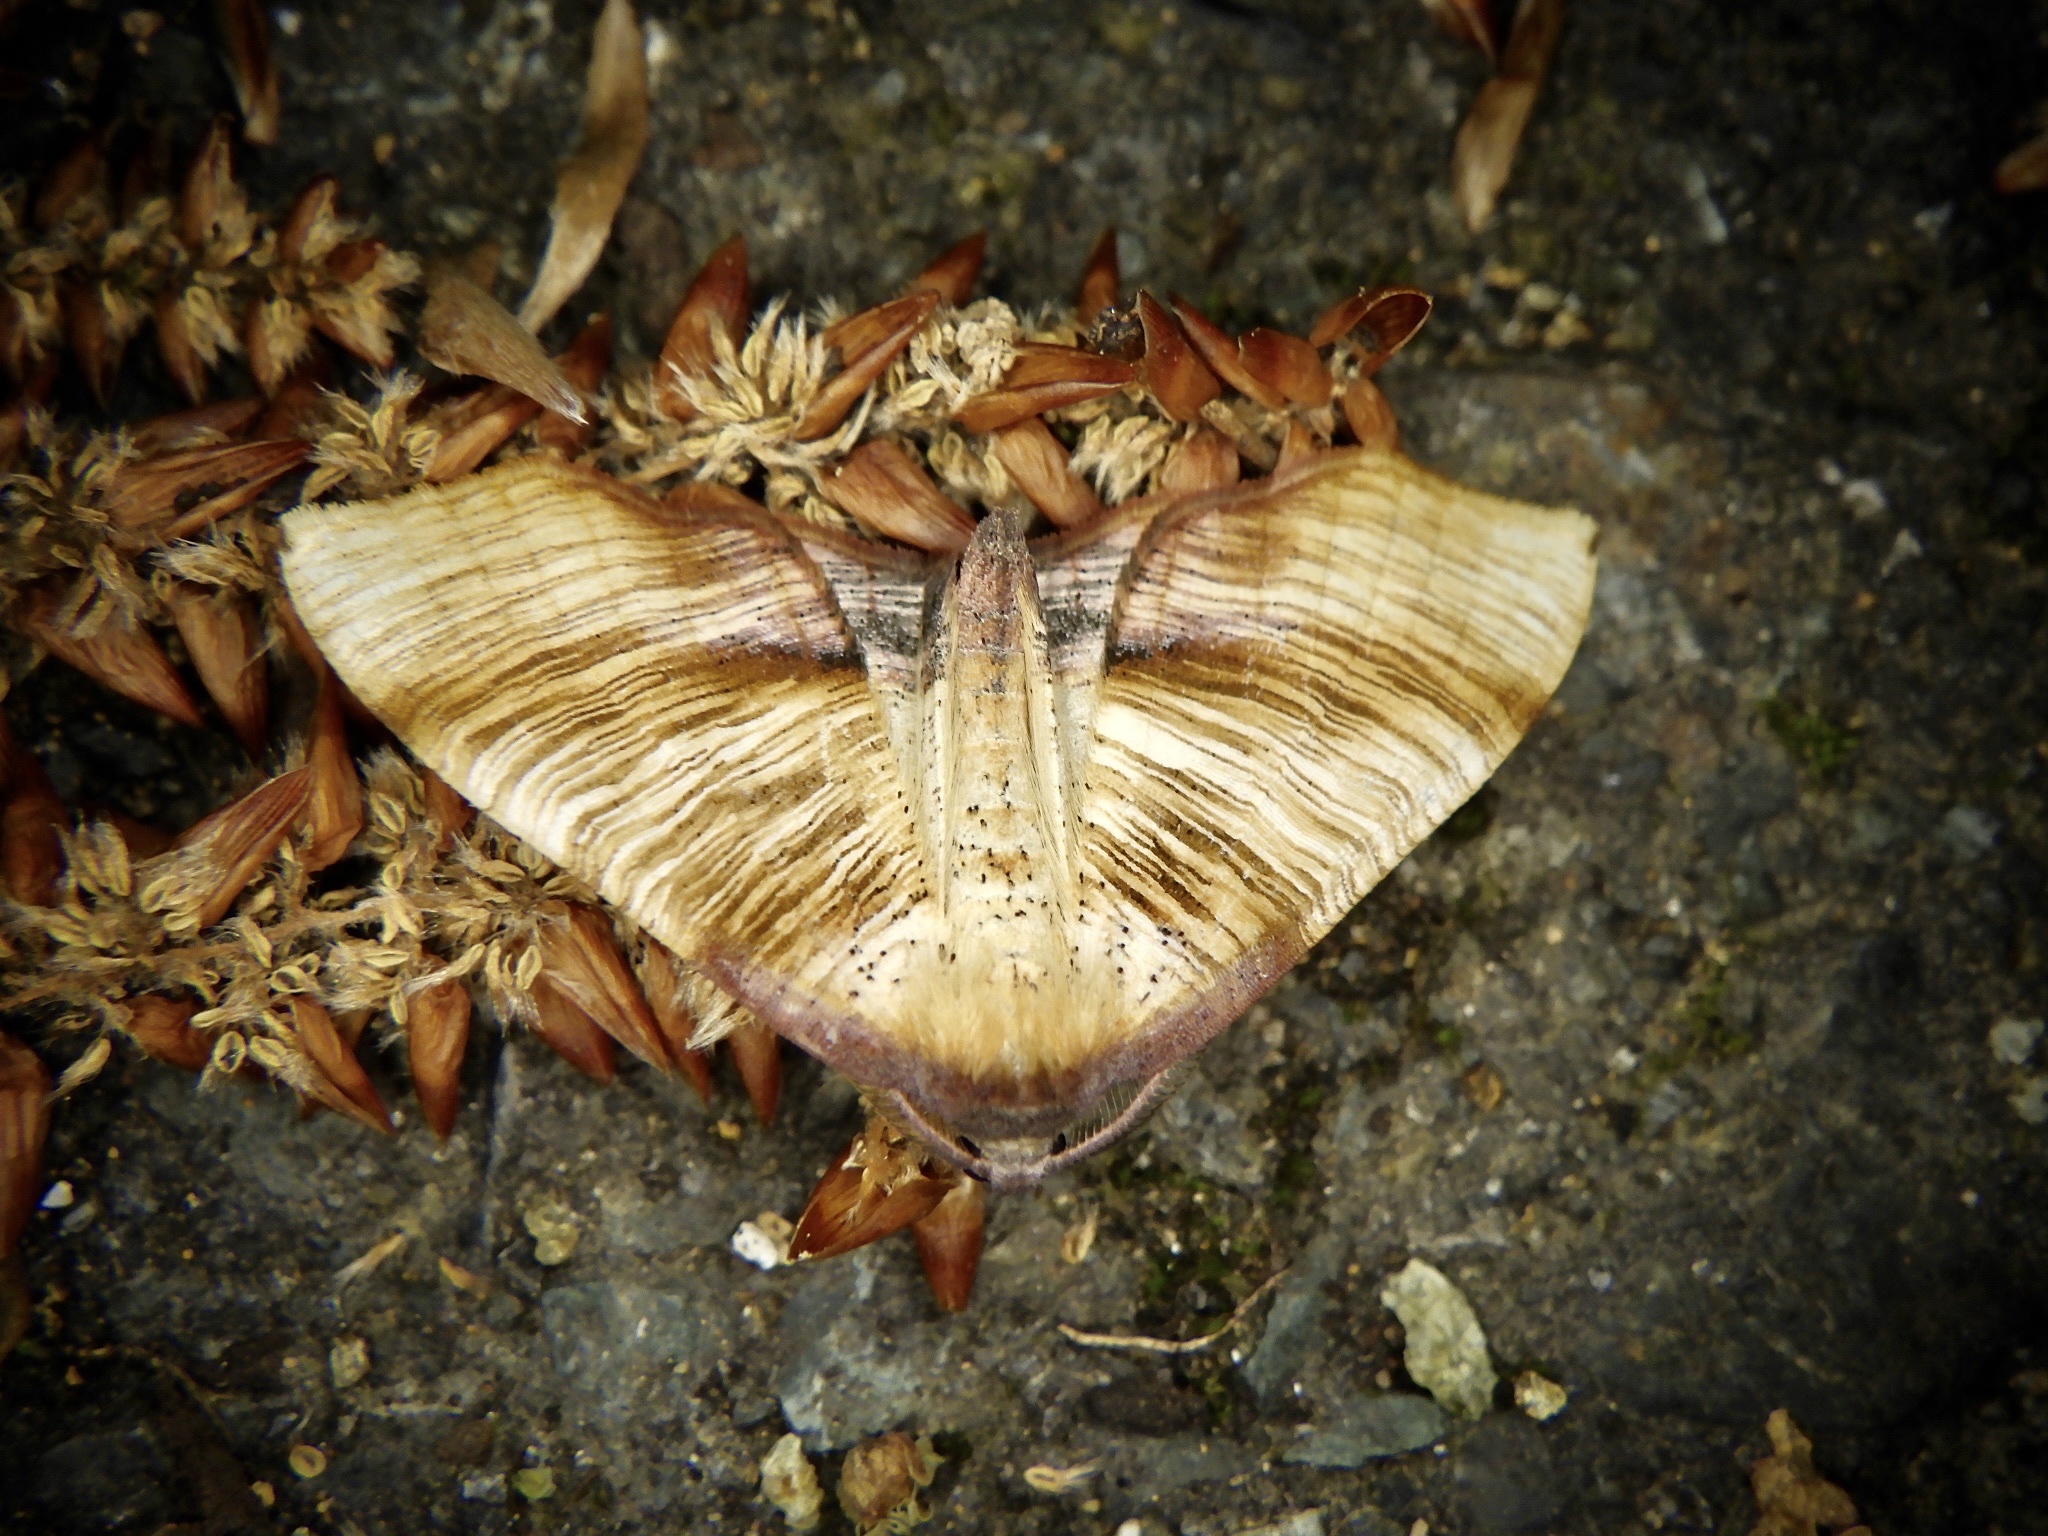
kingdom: Animalia
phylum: Arthropoda
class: Insecta
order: Lepidoptera
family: Geometridae
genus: Plagodis
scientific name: Plagodis dolabraria
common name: Scorched wing
